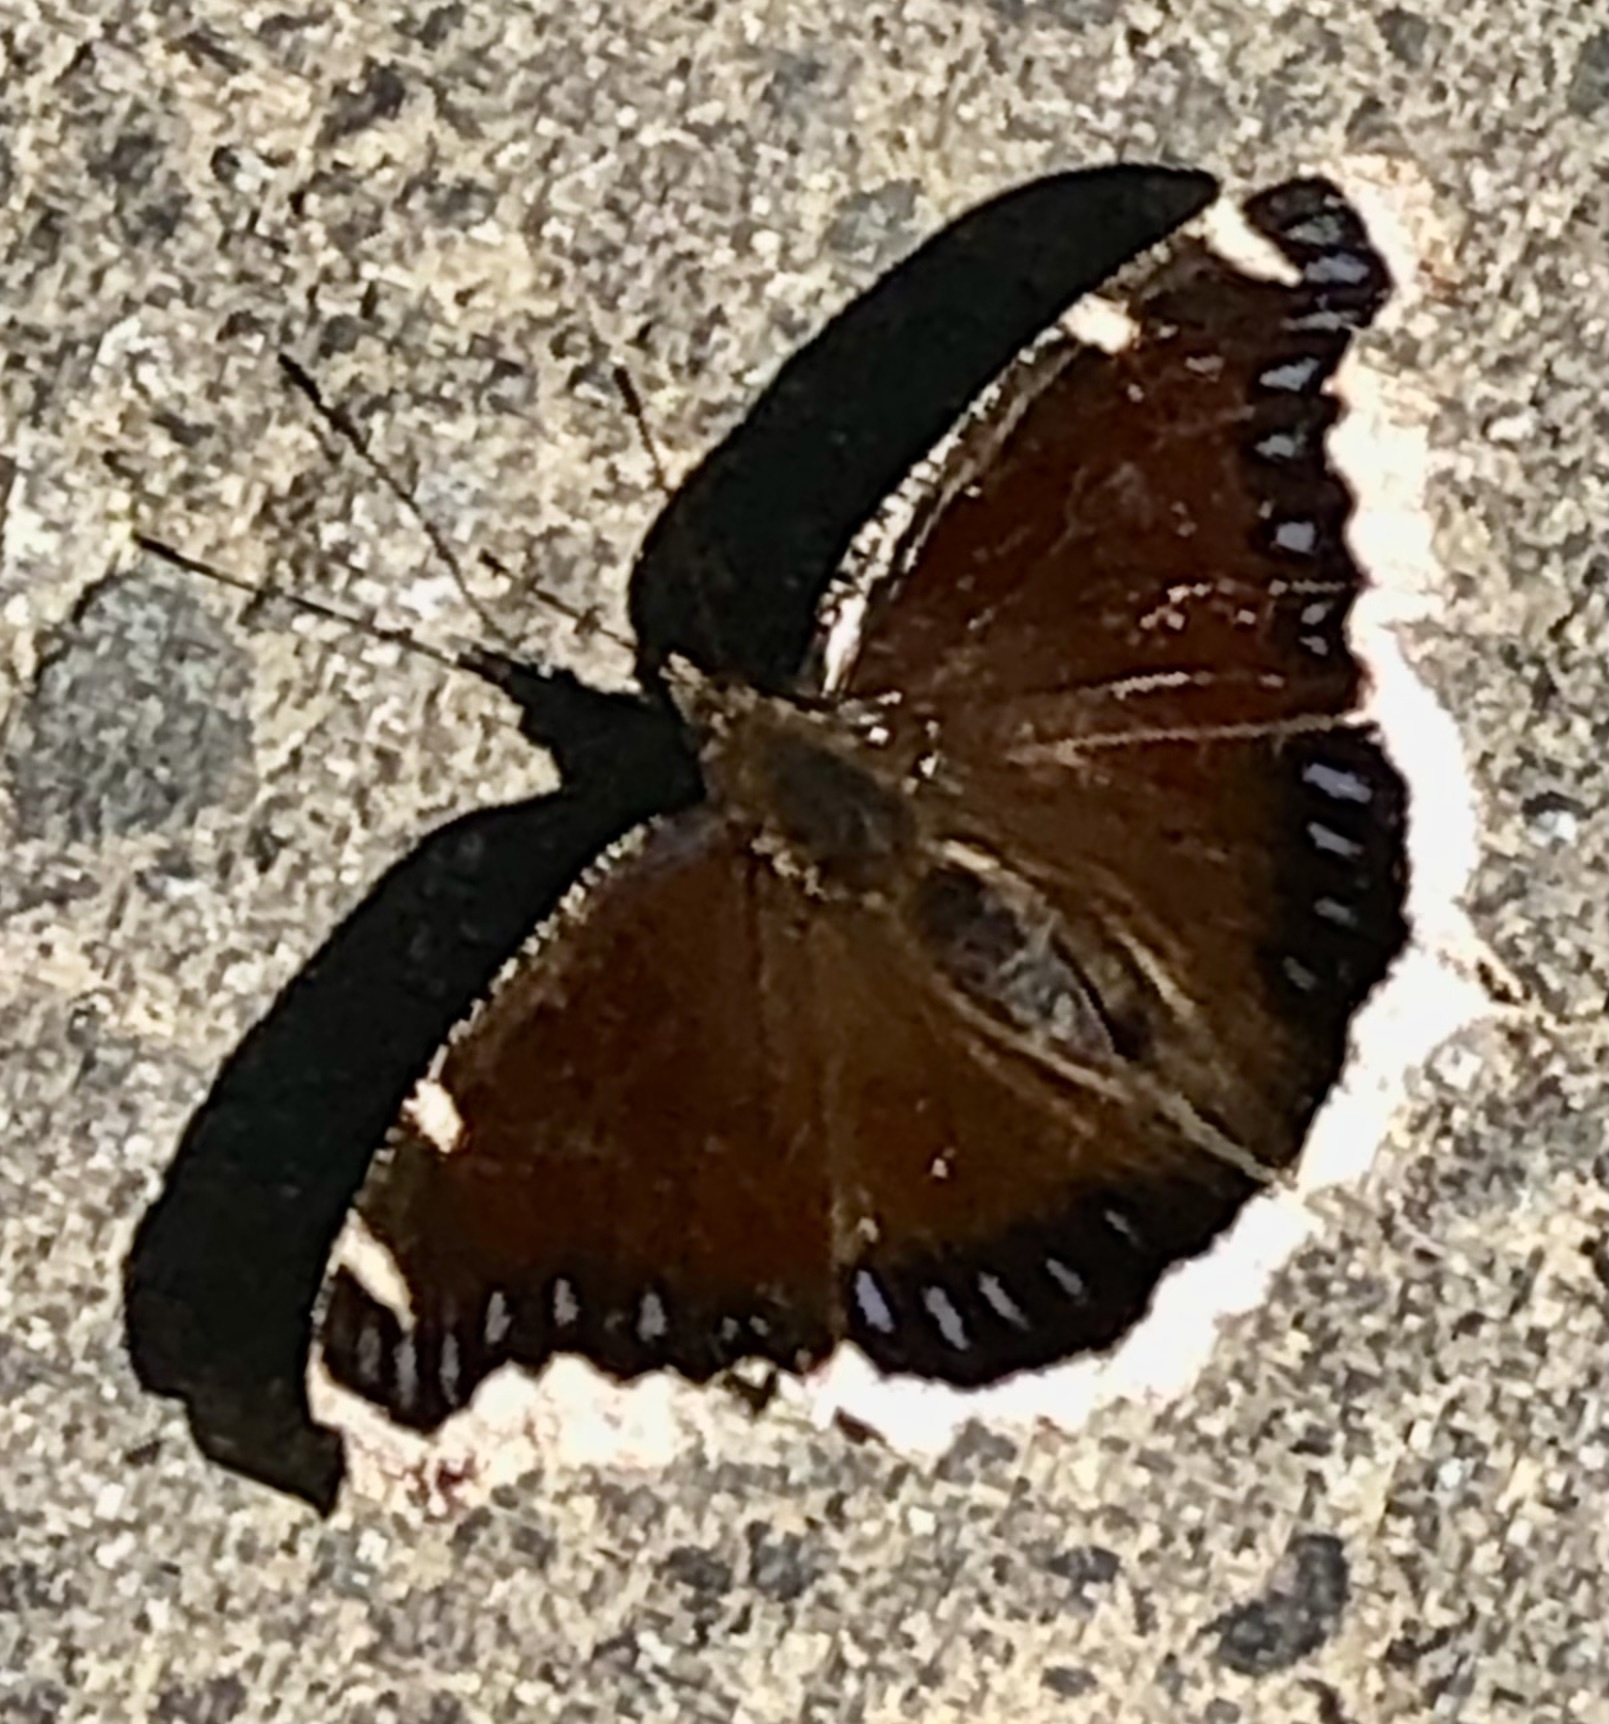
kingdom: Animalia
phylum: Arthropoda
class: Insecta
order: Lepidoptera
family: Nymphalidae
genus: Nymphalis
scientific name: Nymphalis antiopa
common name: Camberwell beauty
